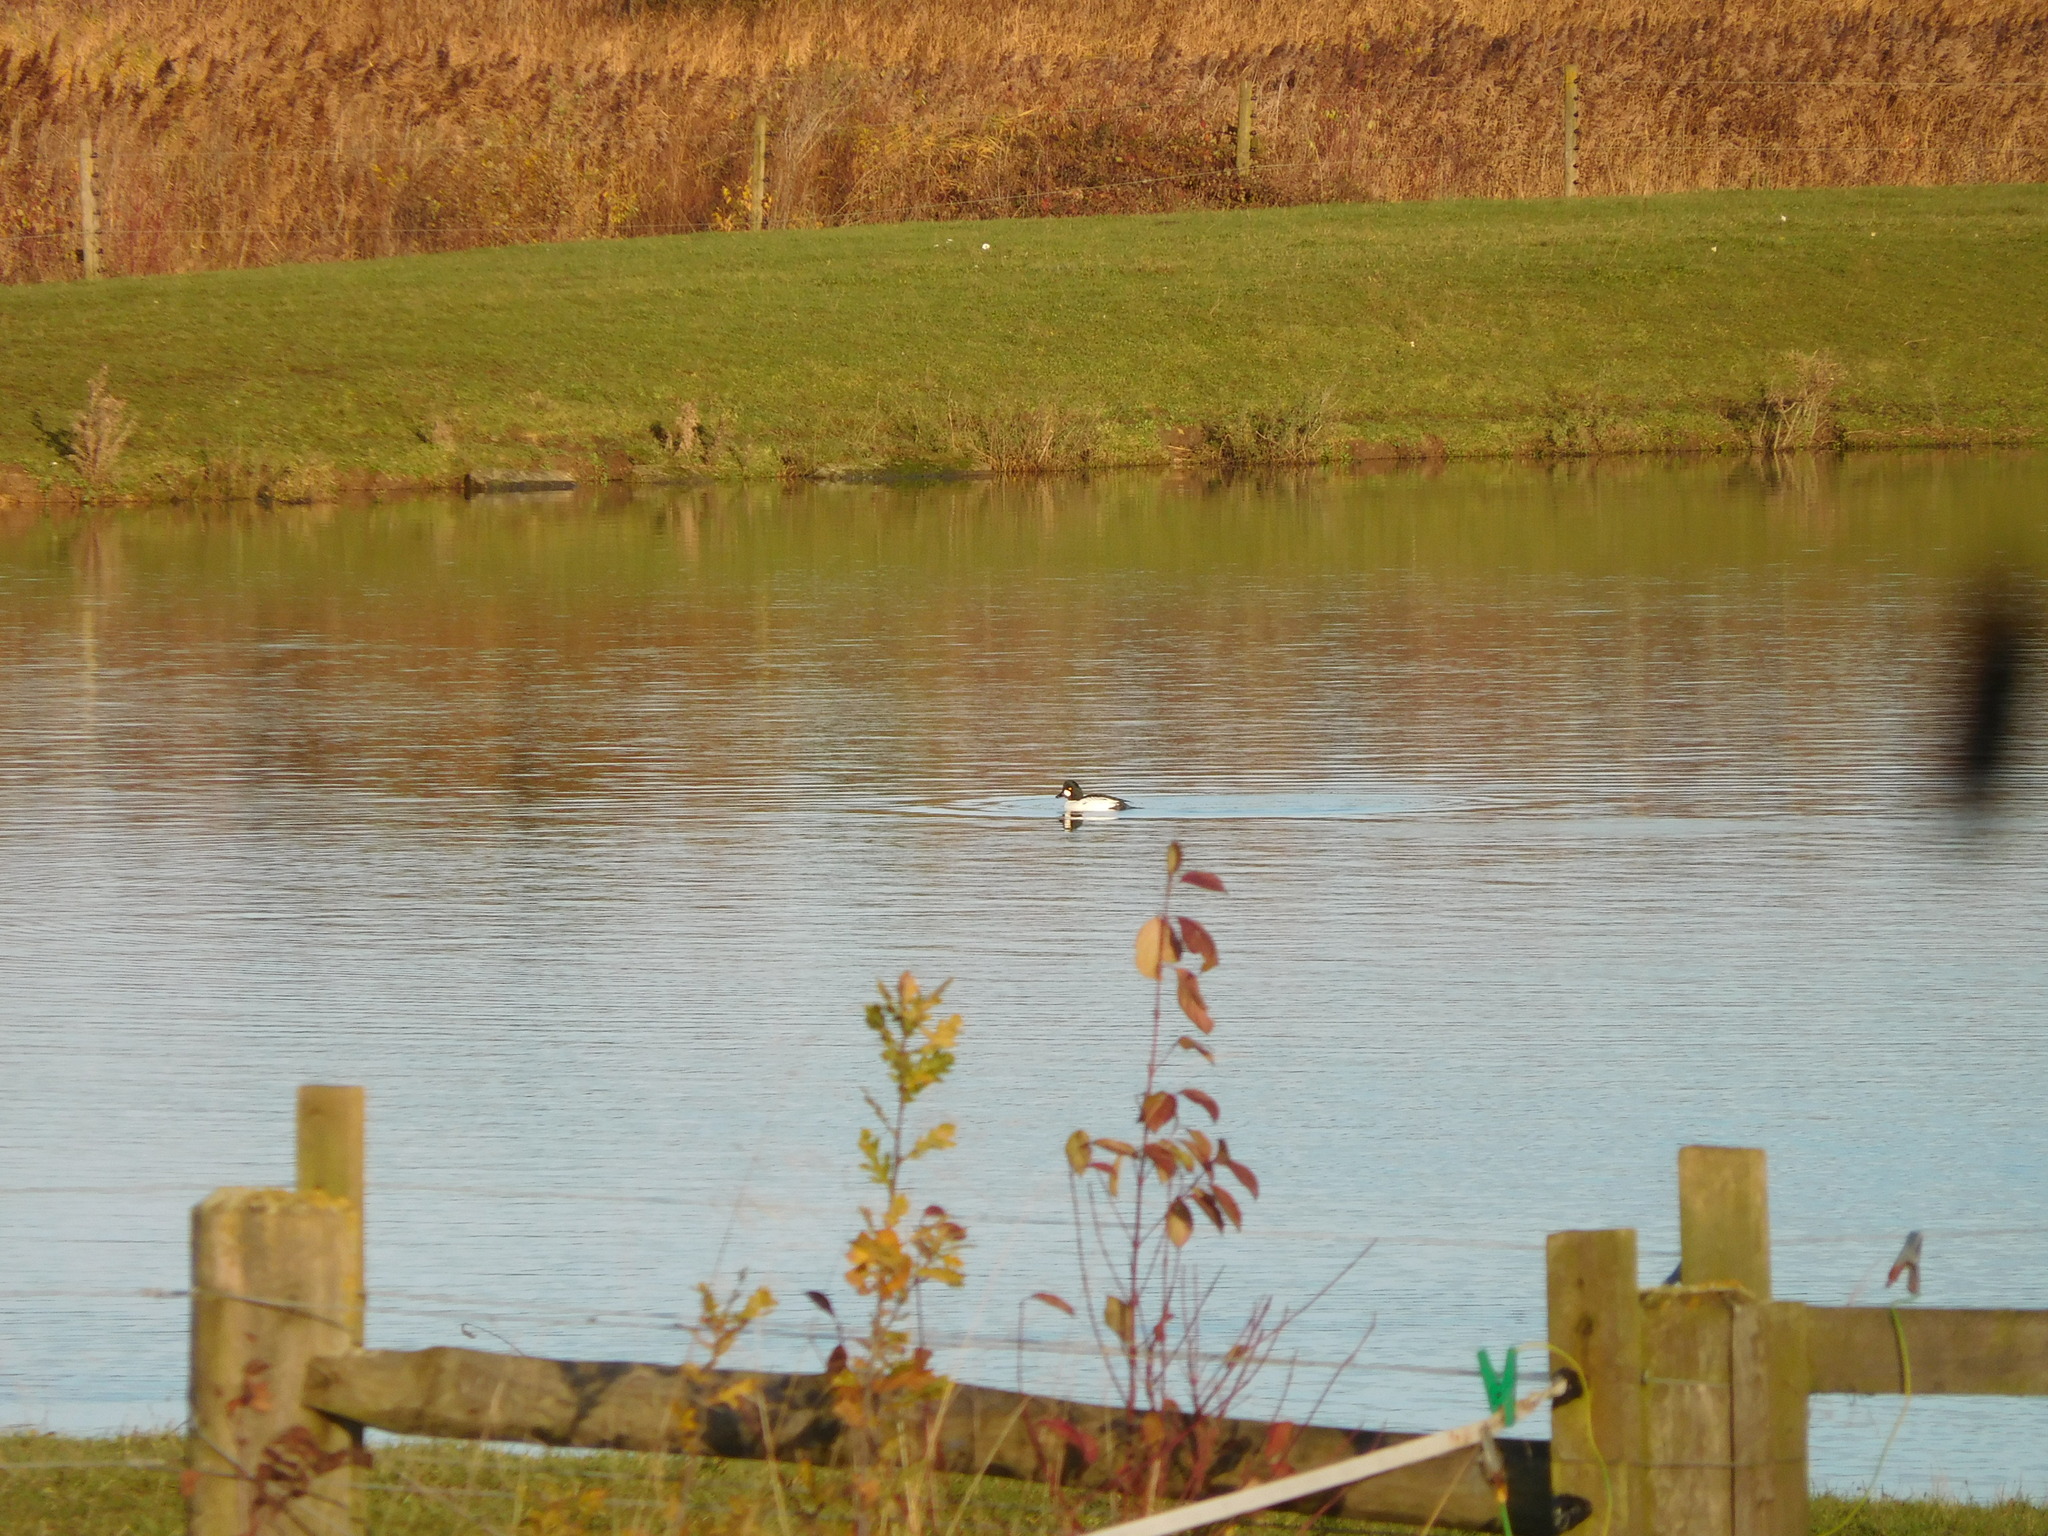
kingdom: Animalia
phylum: Chordata
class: Aves
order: Anseriformes
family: Anatidae
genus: Bucephala
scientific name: Bucephala clangula
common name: Common goldeneye
